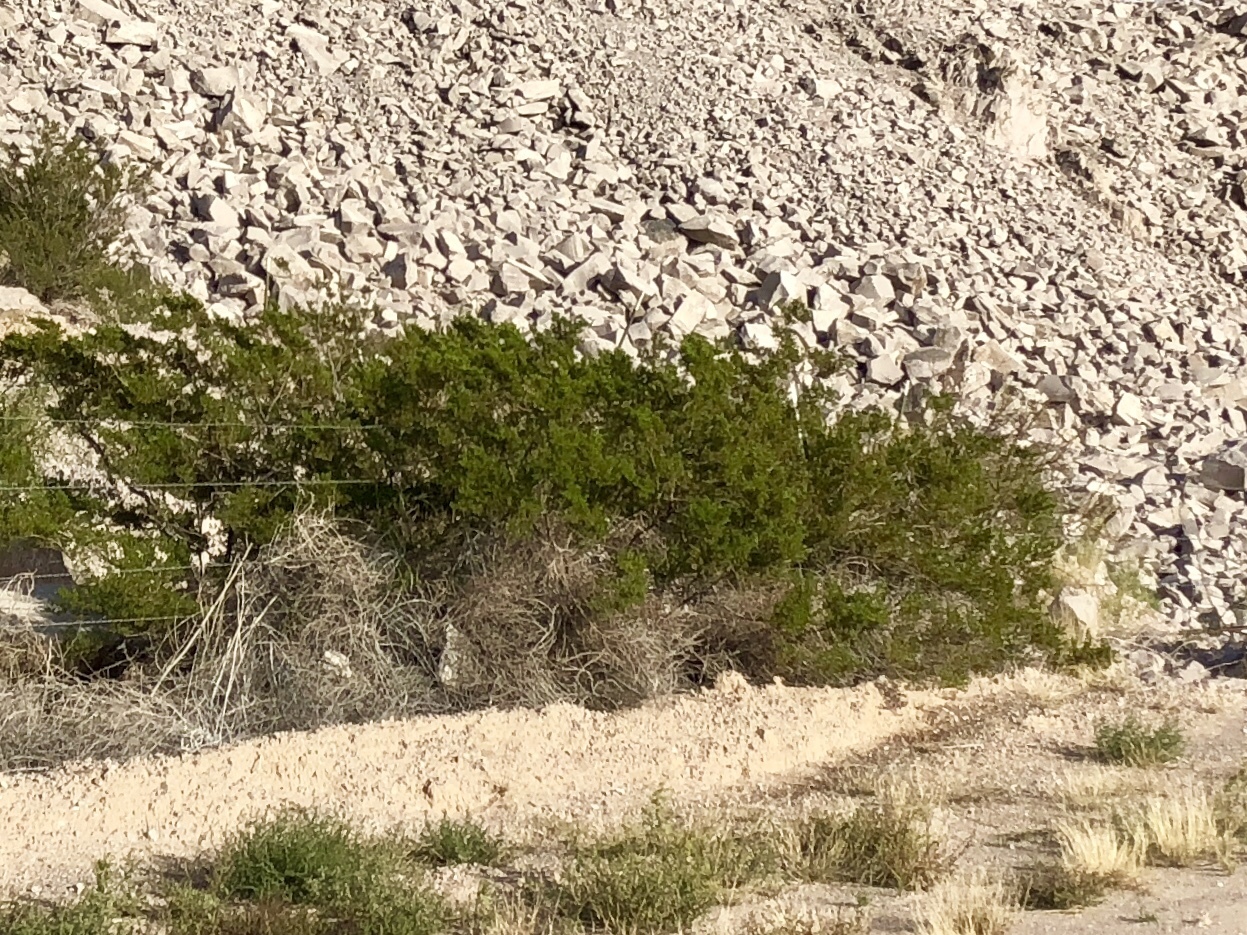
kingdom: Plantae
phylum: Tracheophyta
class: Magnoliopsida
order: Zygophyllales
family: Zygophyllaceae
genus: Larrea
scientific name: Larrea tridentata
